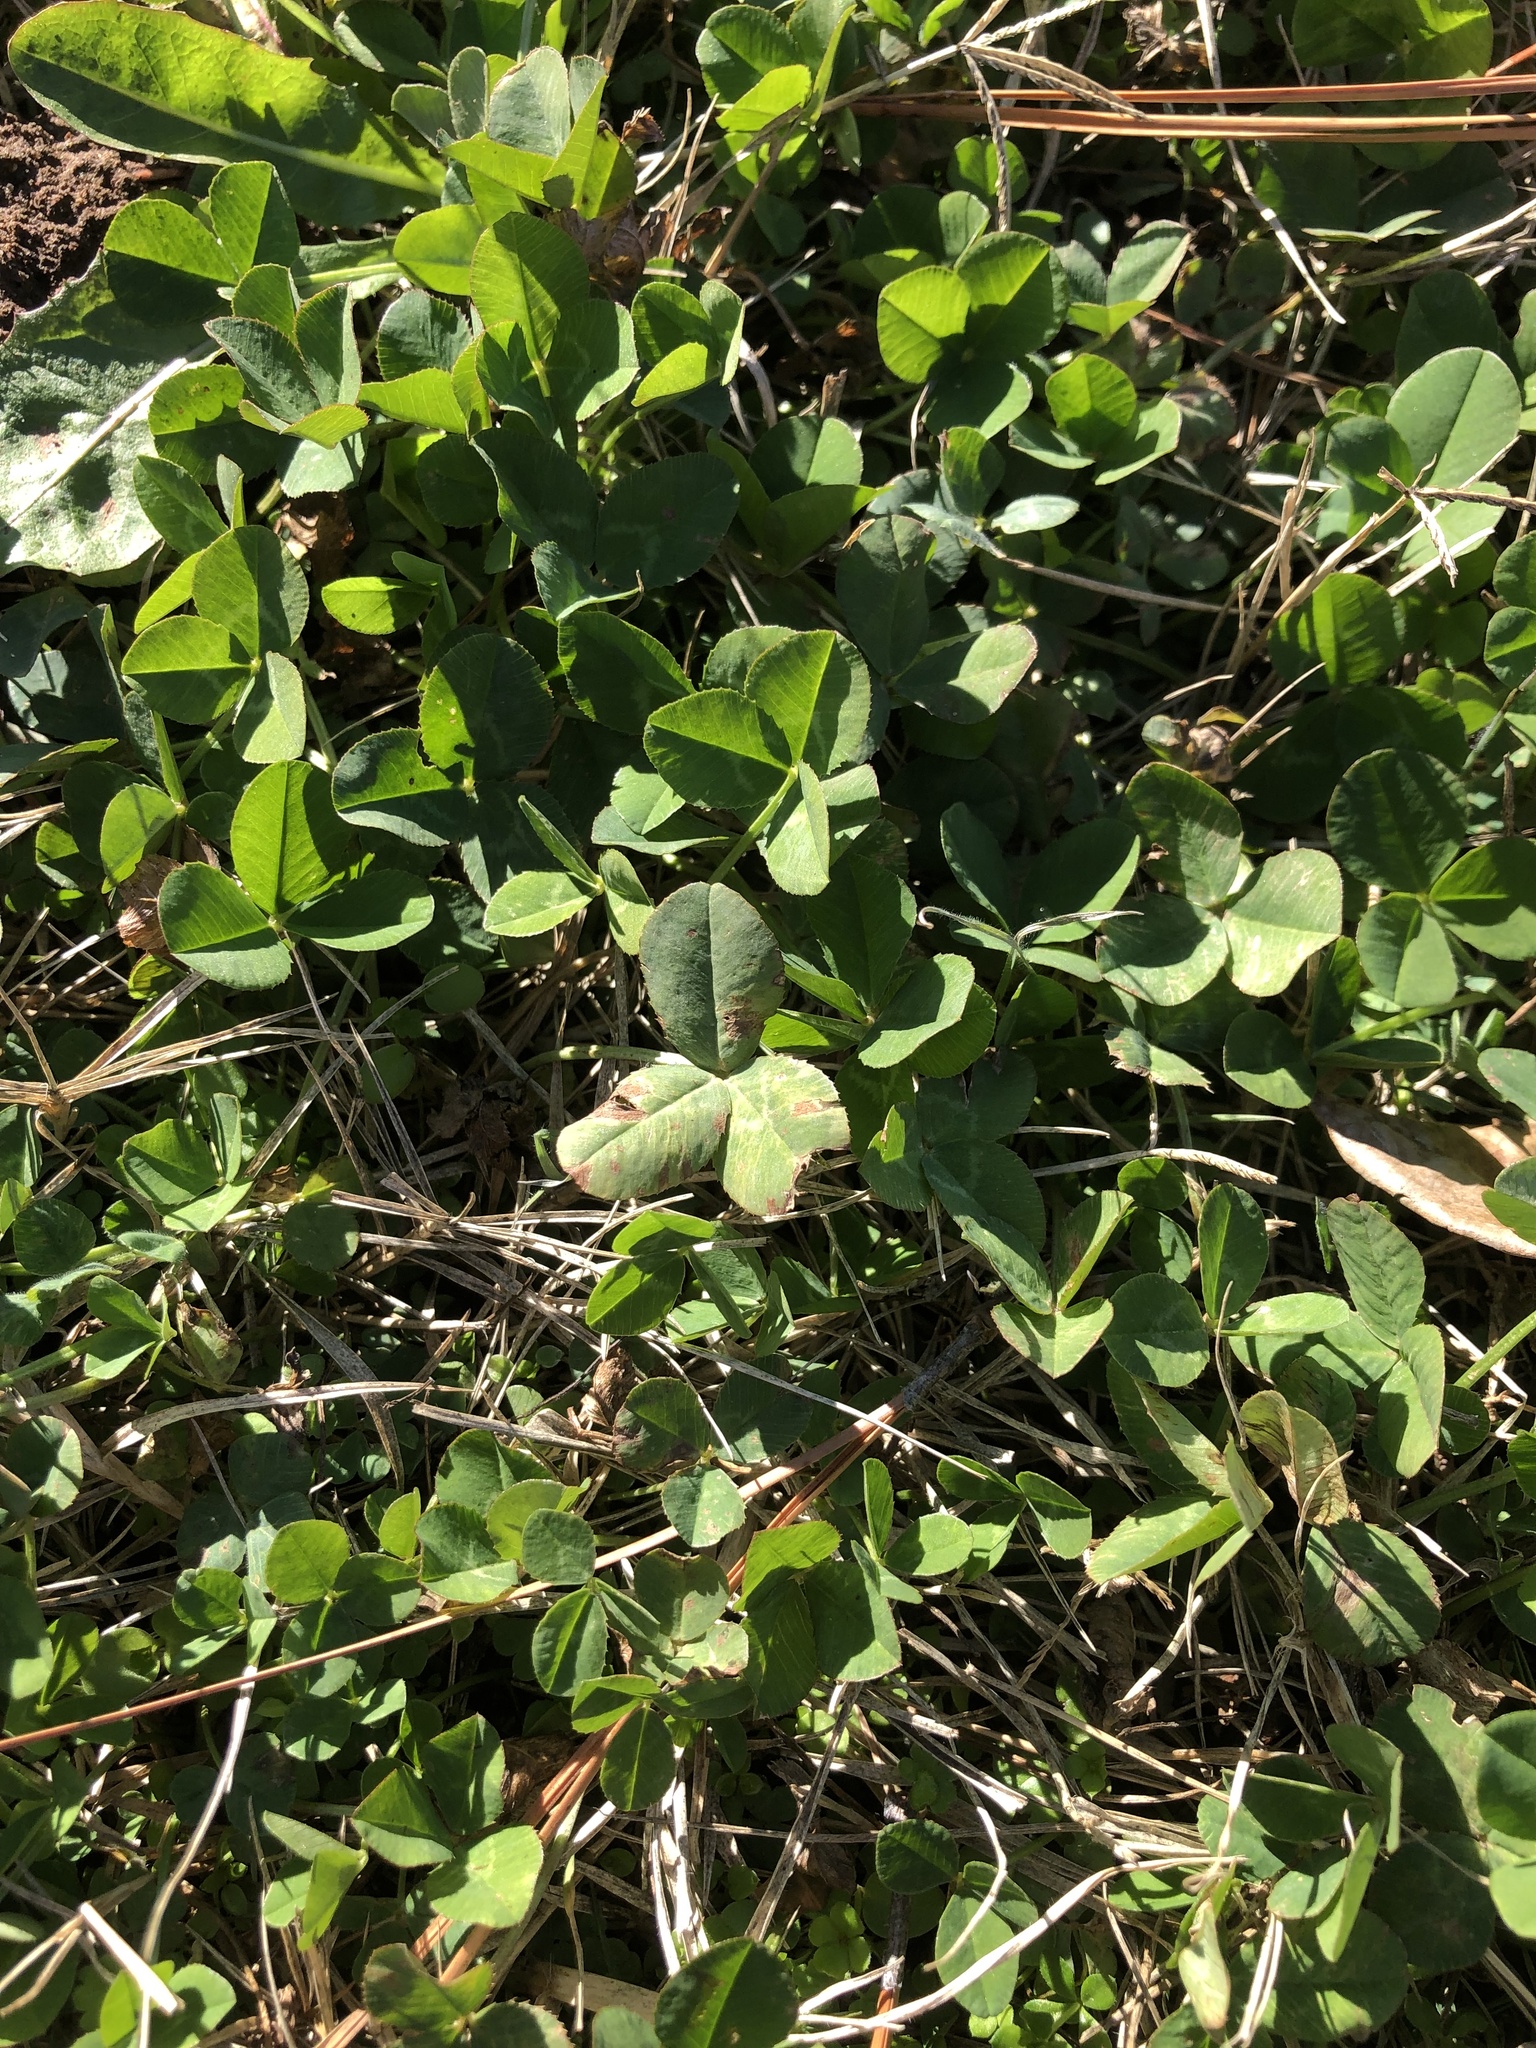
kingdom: Plantae
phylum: Tracheophyta
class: Magnoliopsida
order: Fabales
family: Fabaceae
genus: Trifolium
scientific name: Trifolium repens
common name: White clover
